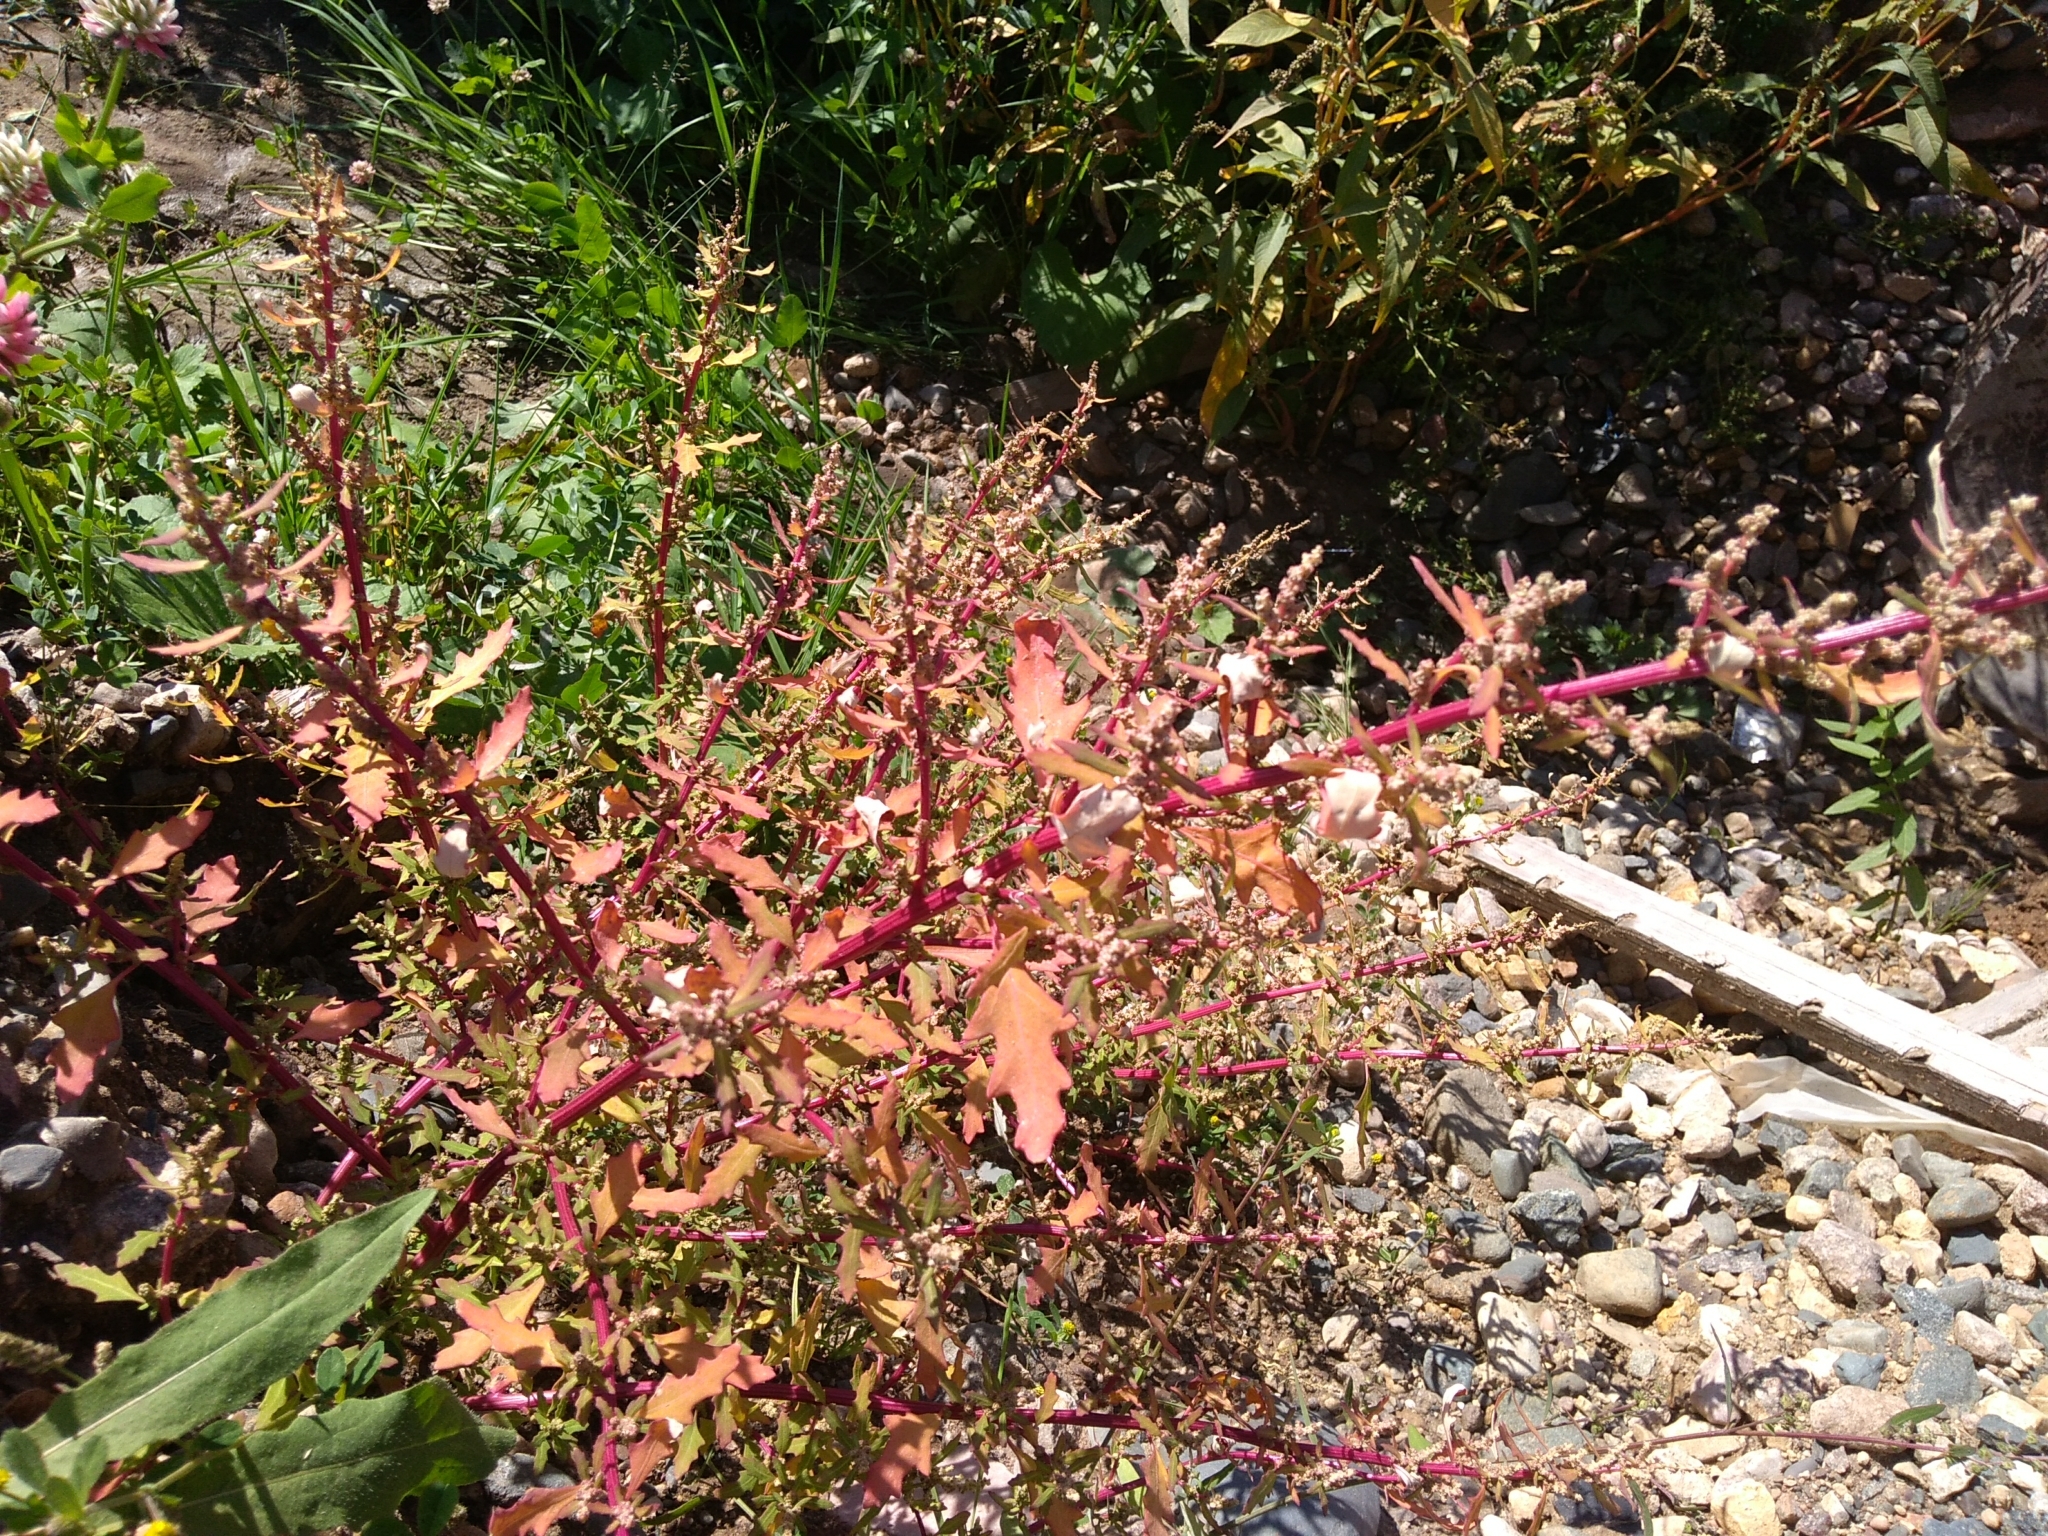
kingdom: Plantae
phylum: Tracheophyta
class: Magnoliopsida
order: Caryophyllales
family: Amaranthaceae
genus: Oxybasis
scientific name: Oxybasis glauca
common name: Glaucous goosefoot
